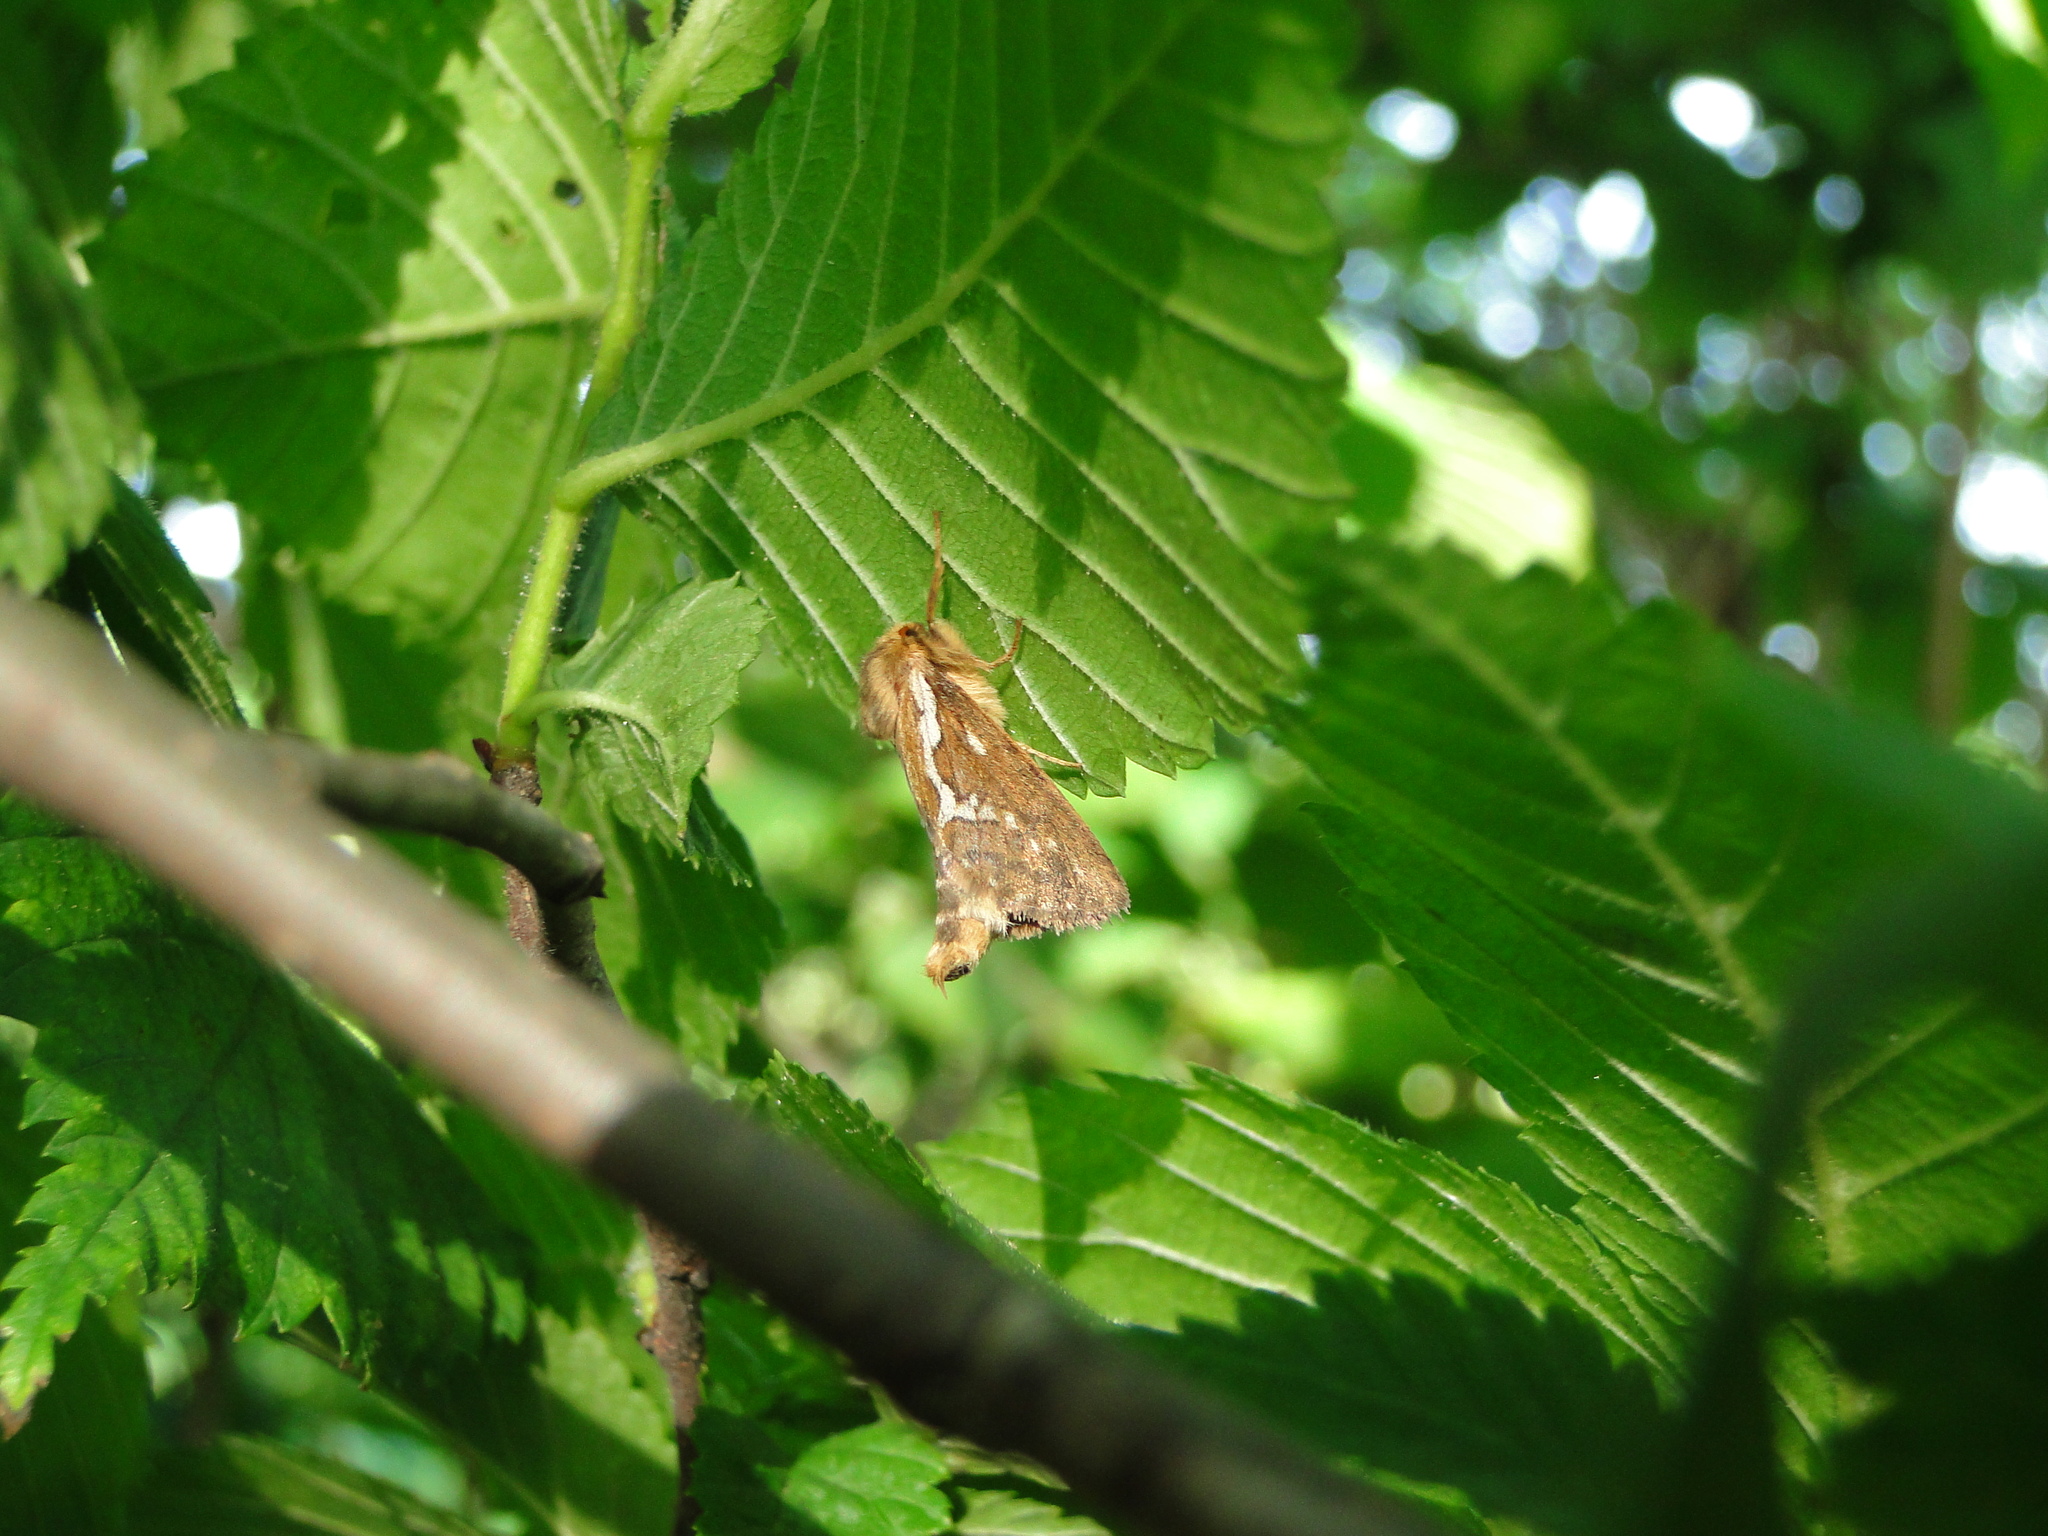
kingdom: Animalia
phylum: Arthropoda
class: Insecta
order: Lepidoptera
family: Hepialidae
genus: Korscheltellus
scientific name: Korscheltellus lupulina
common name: Common swift
